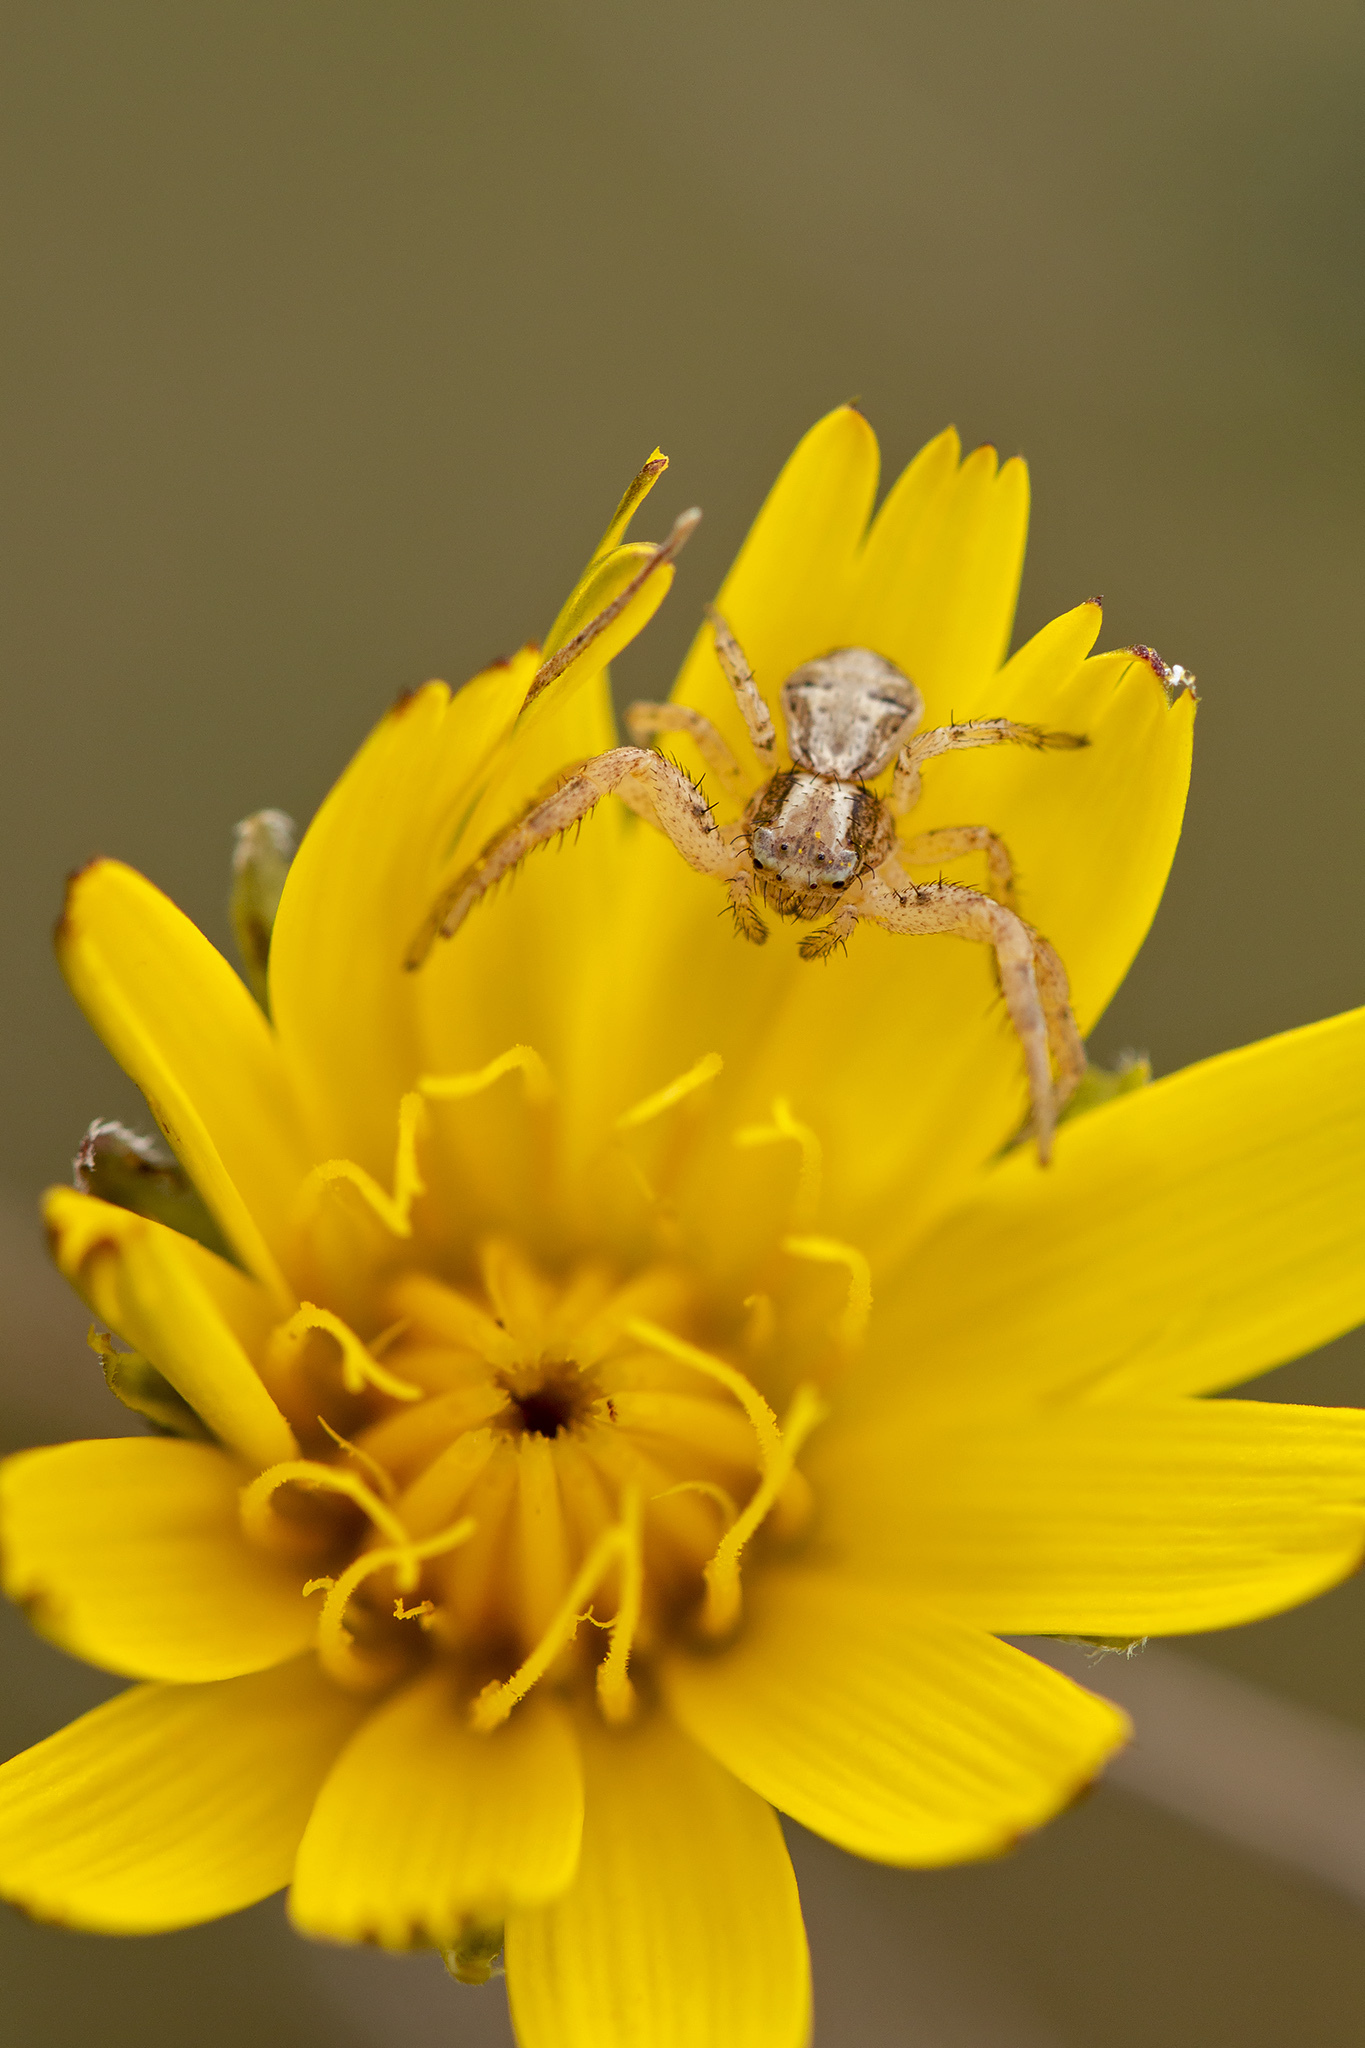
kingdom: Animalia
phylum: Arthropoda
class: Arachnida
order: Araneae
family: Thomisidae
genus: Xysticus
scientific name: Xysticus
